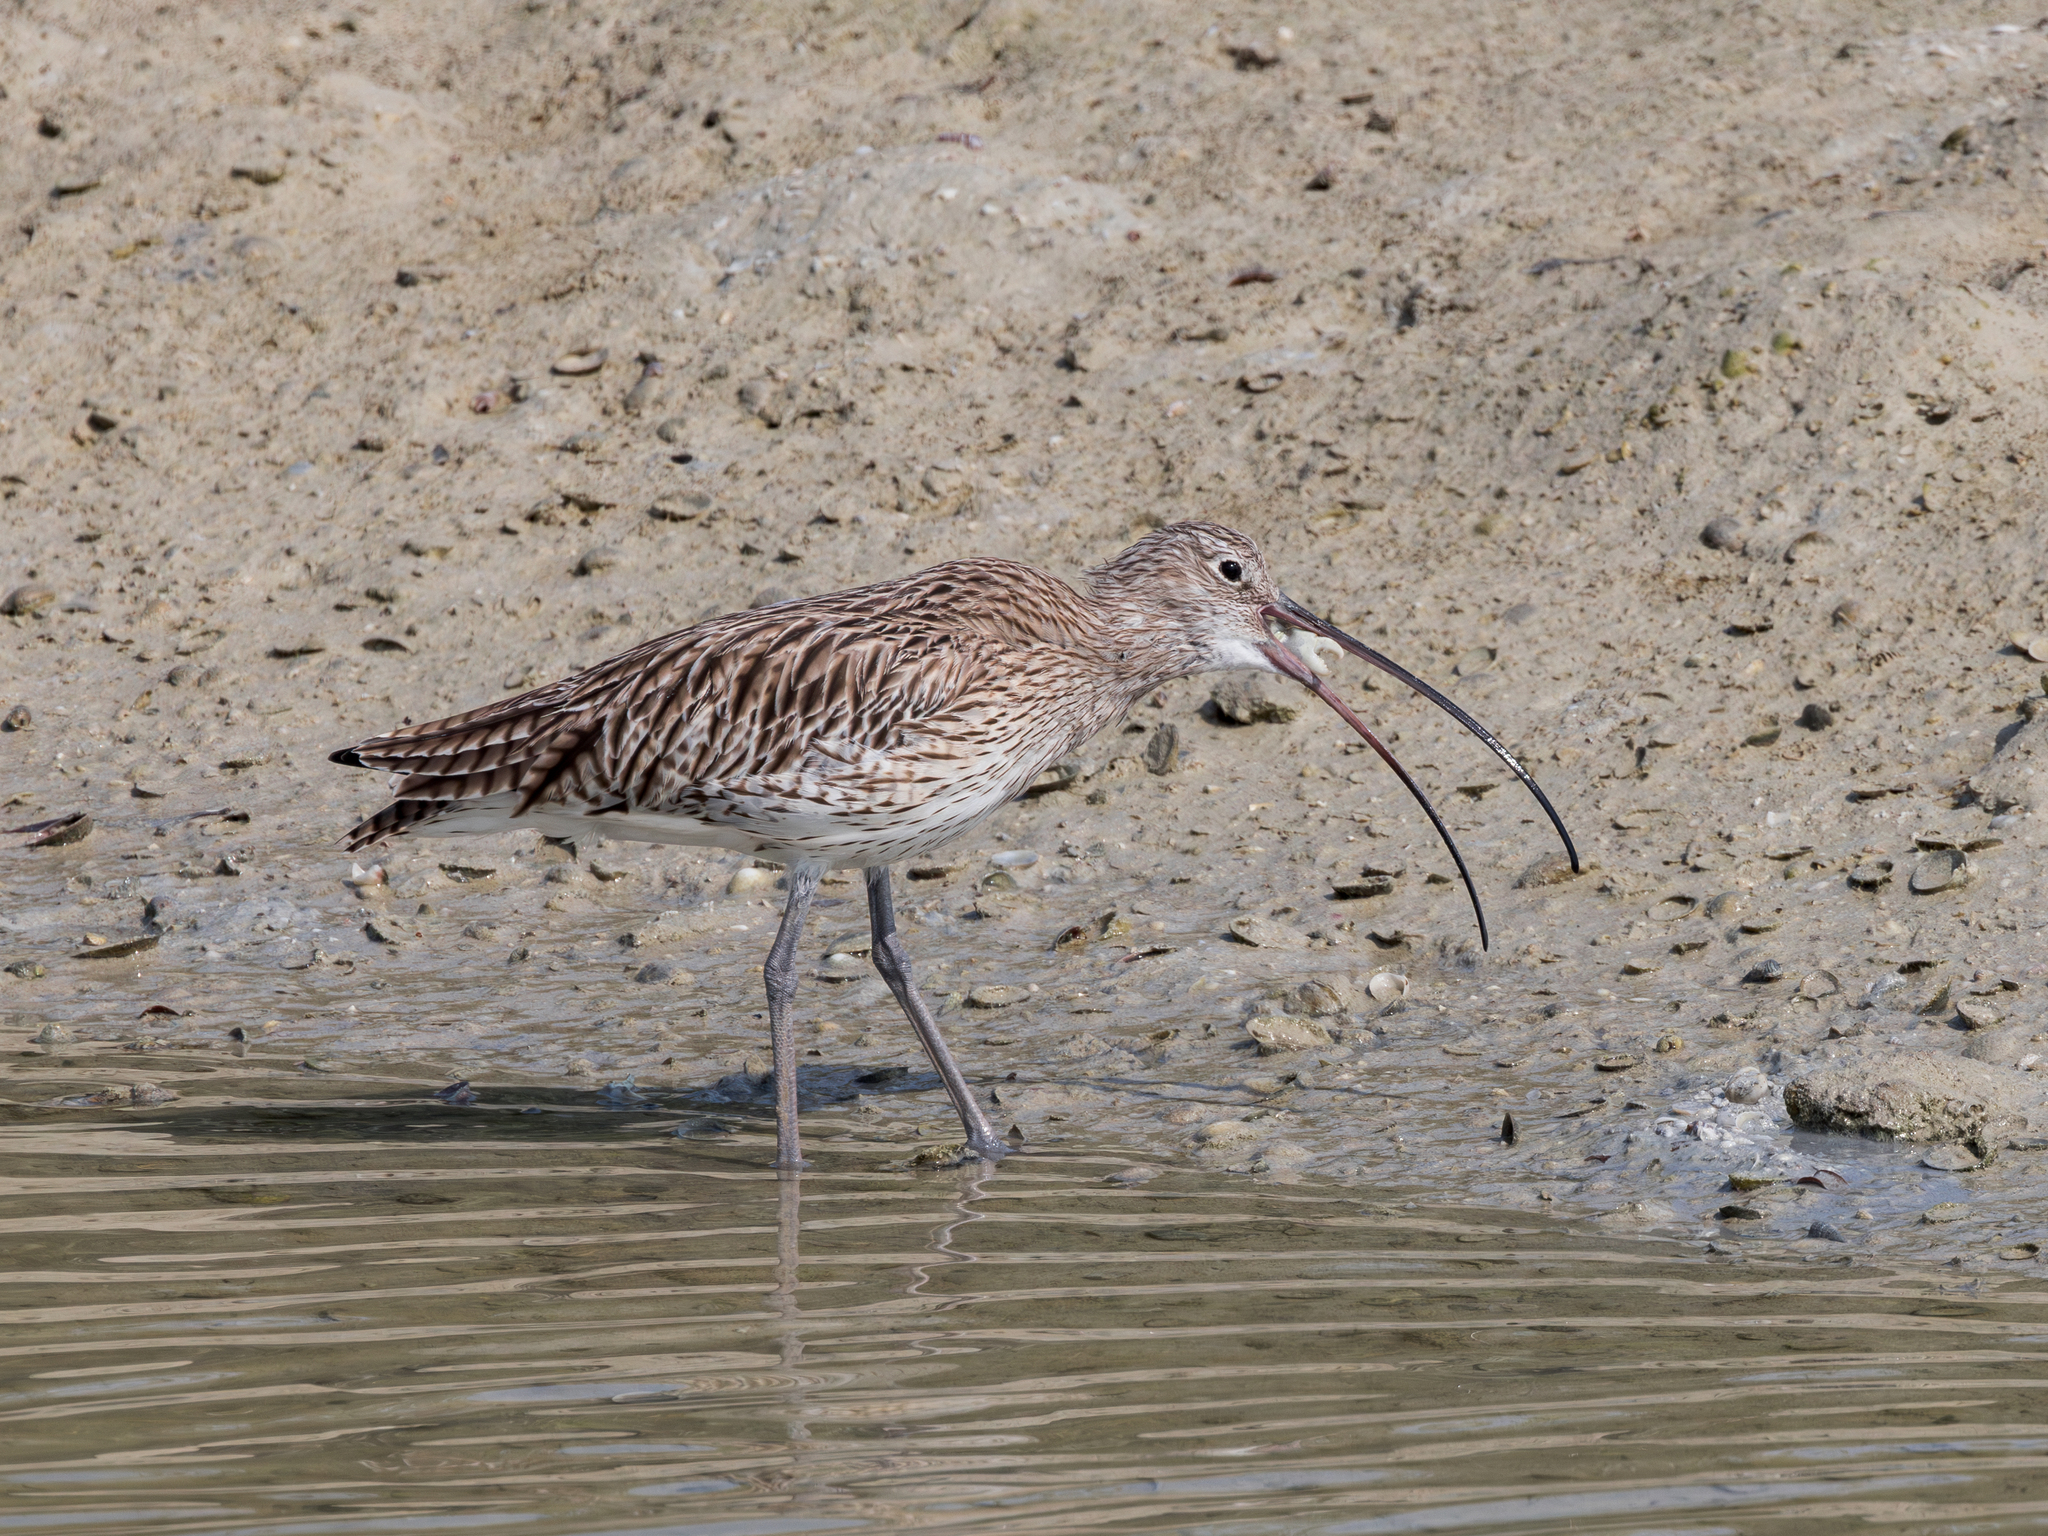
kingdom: Animalia
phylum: Chordata
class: Aves
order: Charadriiformes
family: Scolopacidae
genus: Numenius
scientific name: Numenius arquata
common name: Eurasian curlew
